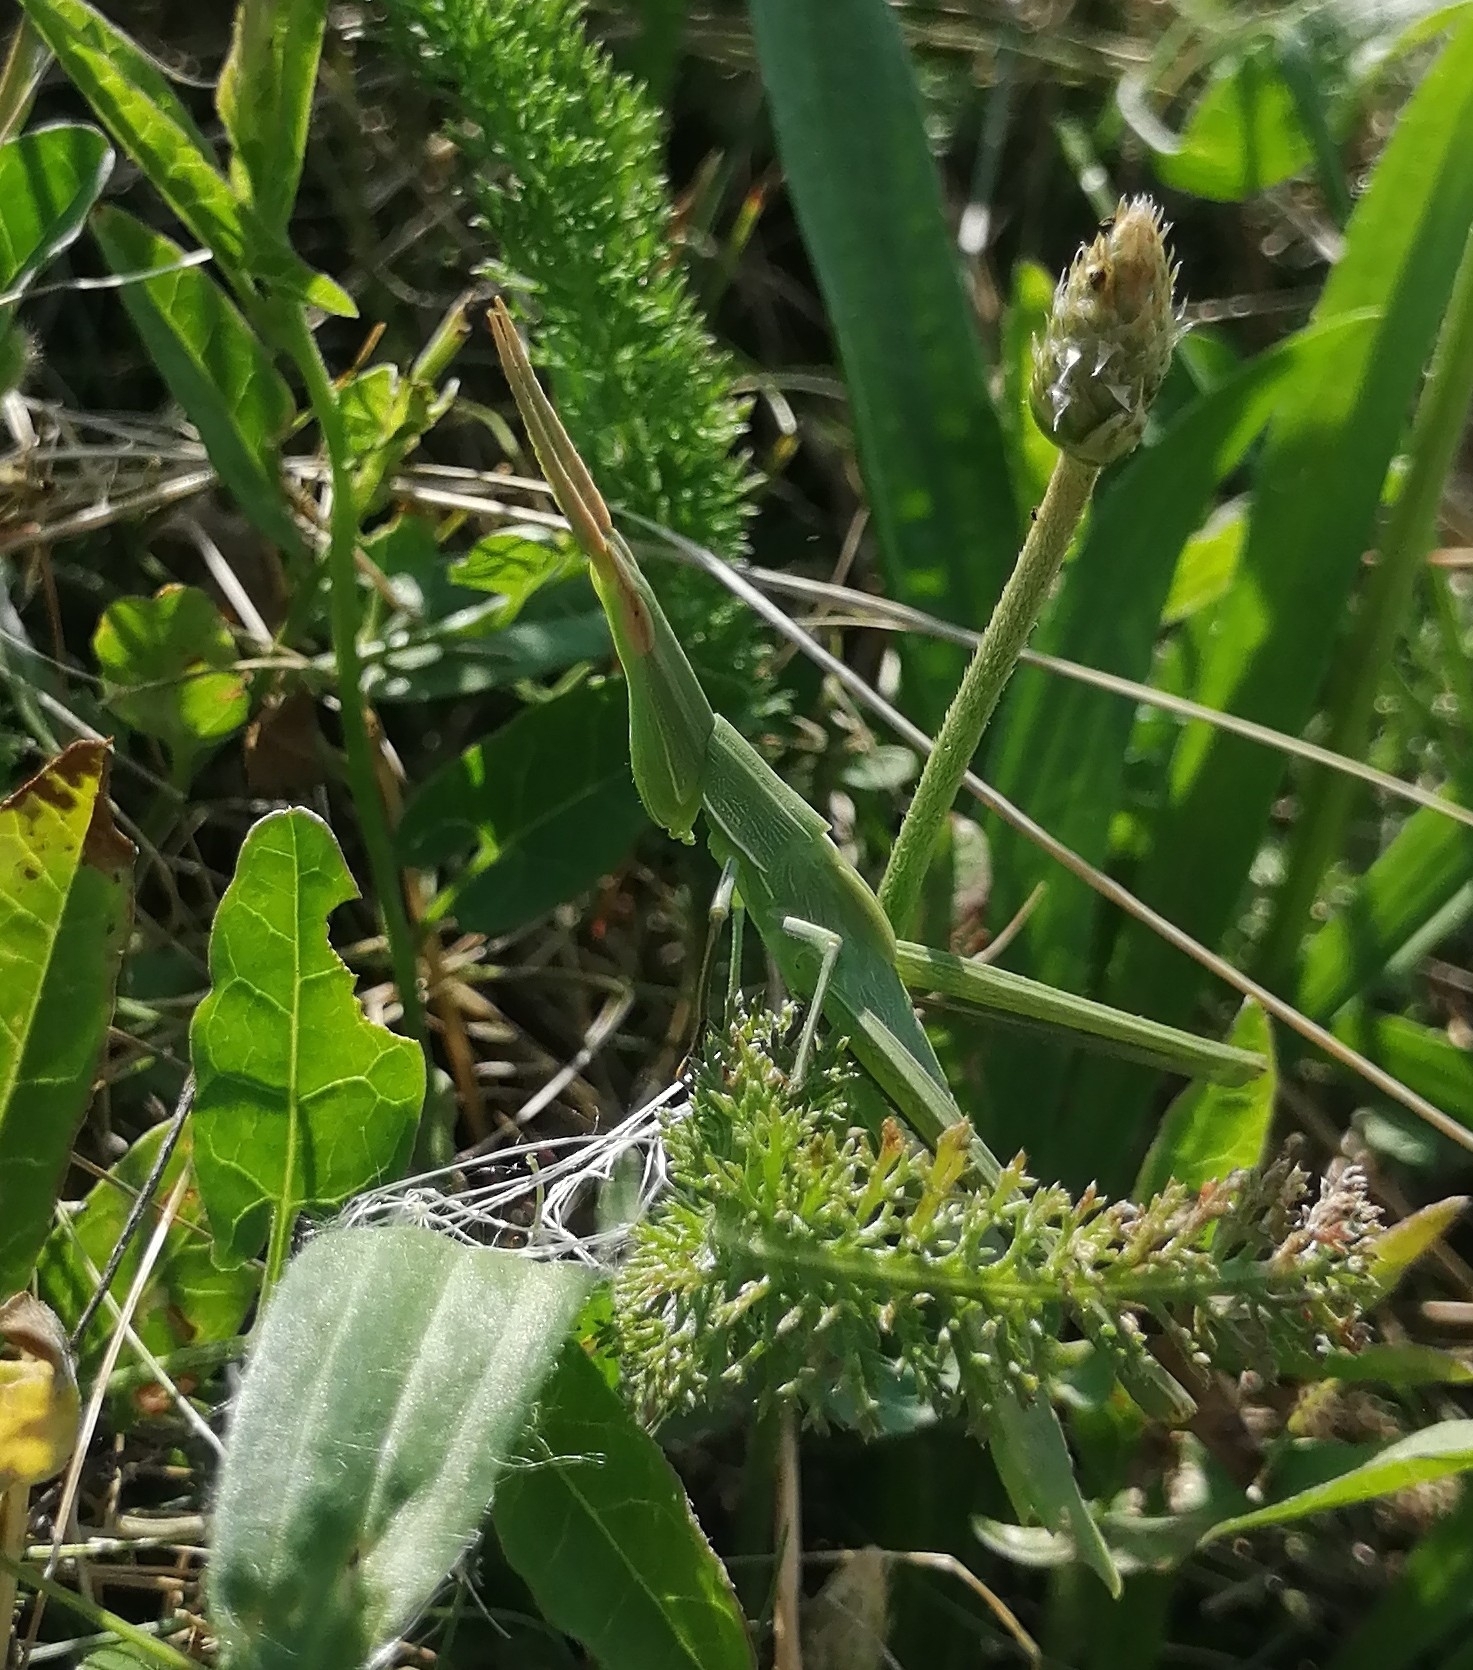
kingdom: Animalia
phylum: Arthropoda
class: Insecta
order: Orthoptera
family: Acrididae
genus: Acrida
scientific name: Acrida ungarica
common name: Common cone-headed grasshopper
